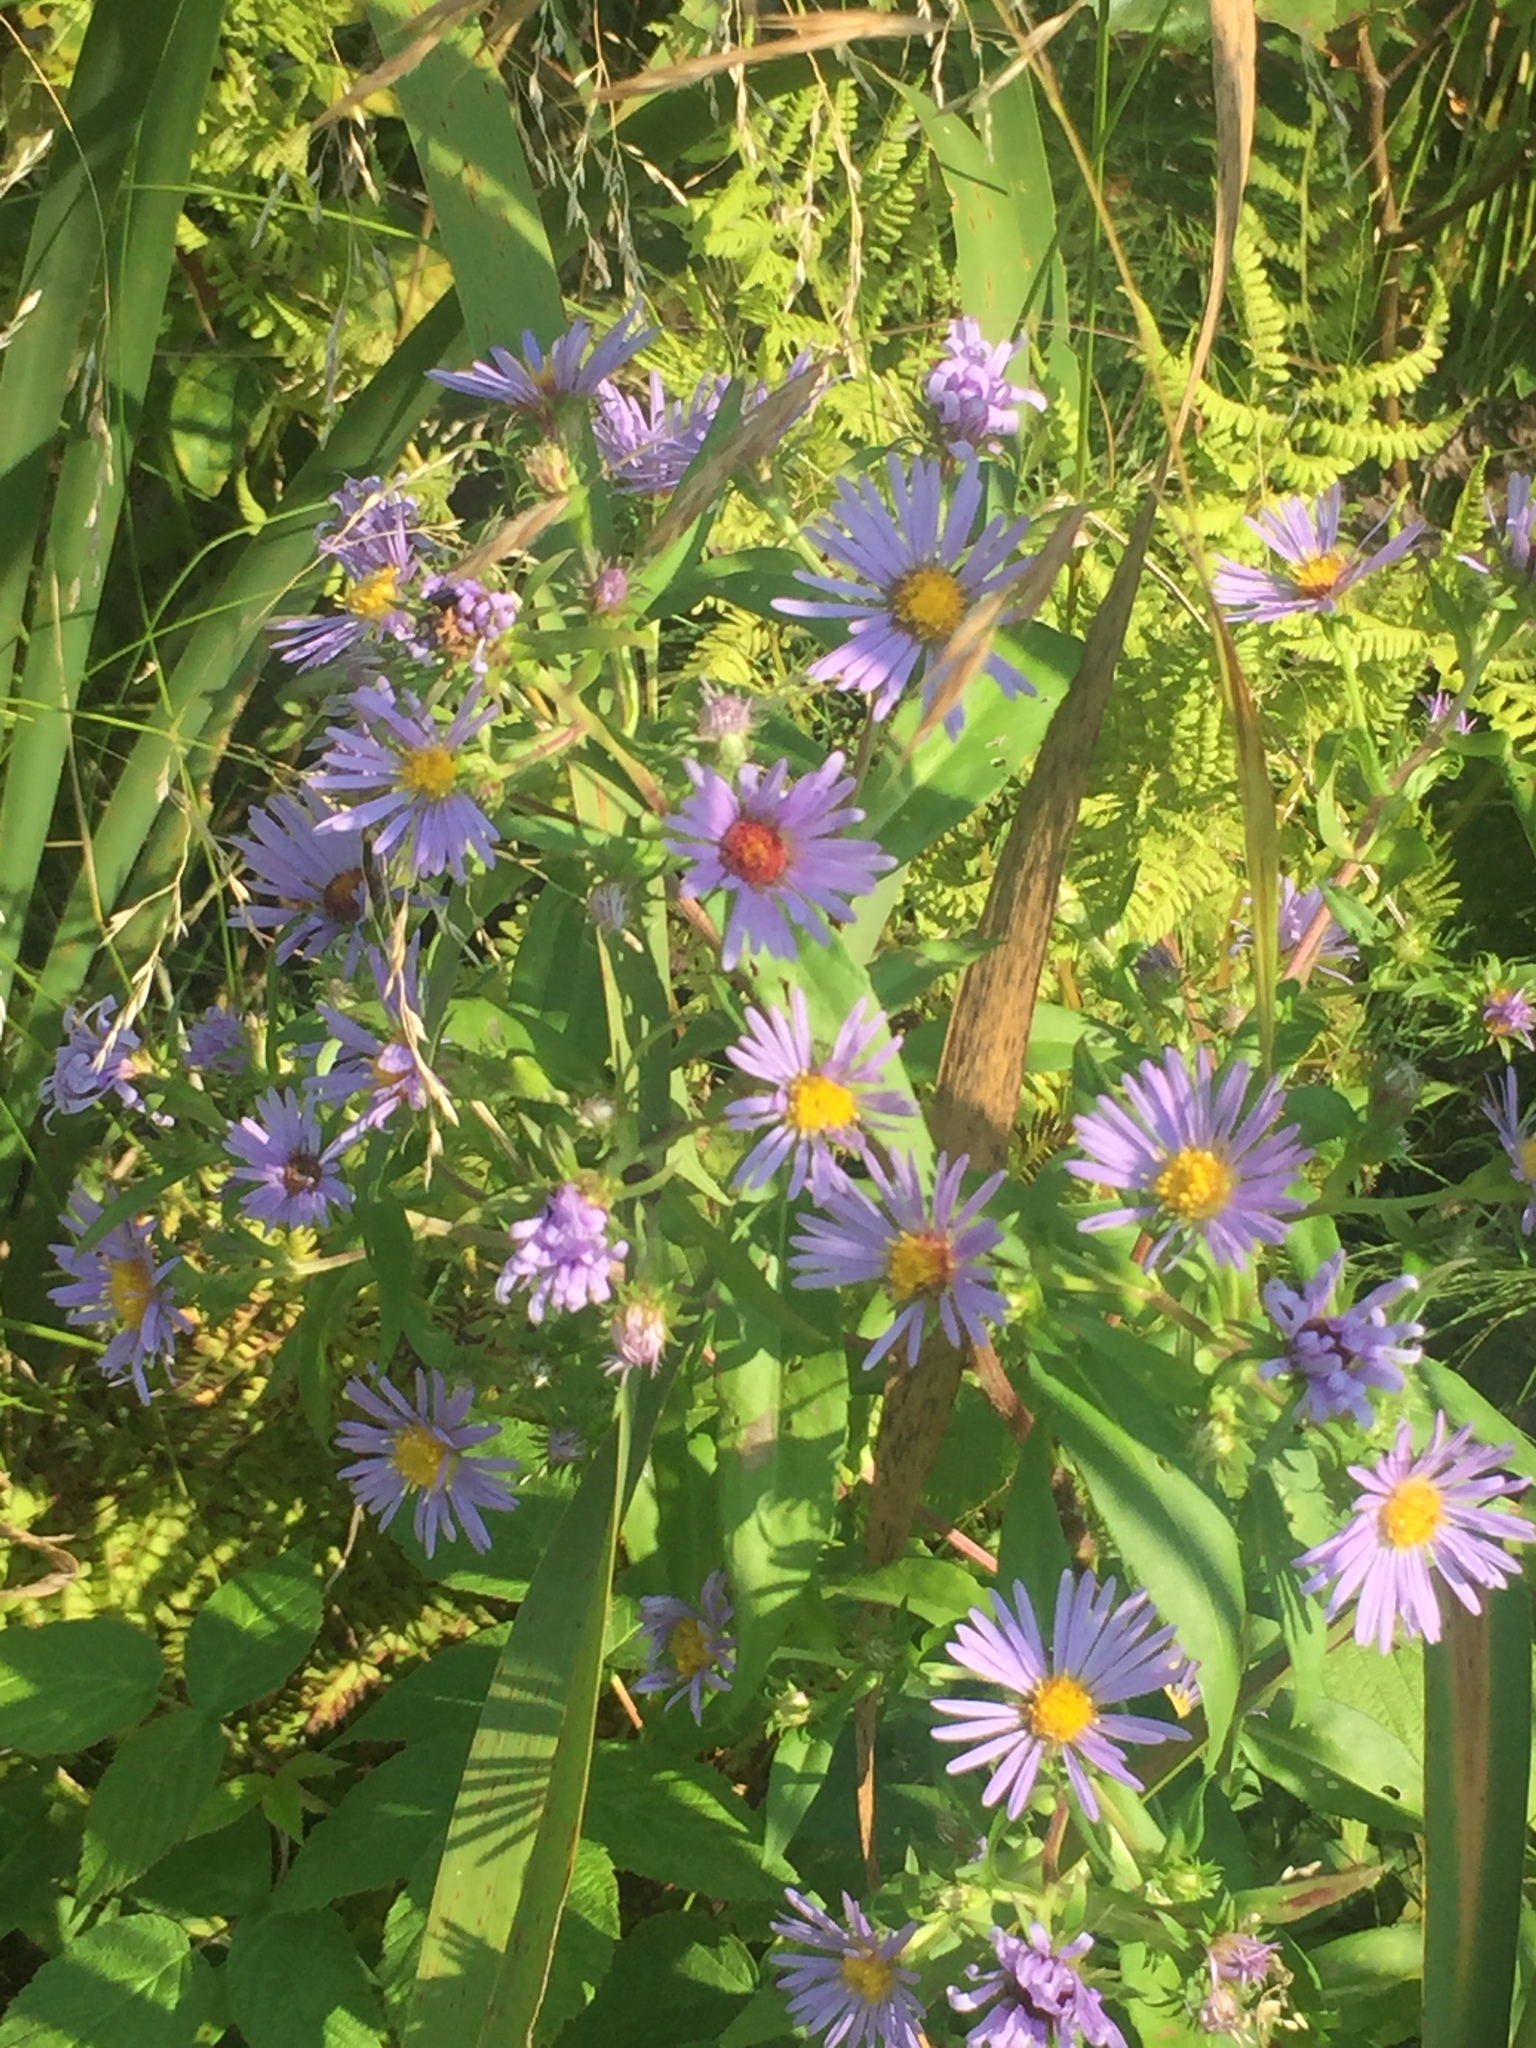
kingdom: Plantae
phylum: Tracheophyta
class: Magnoliopsida
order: Asterales
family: Asteraceae
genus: Symphyotrichum
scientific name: Symphyotrichum puniceum
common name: Bog aster
